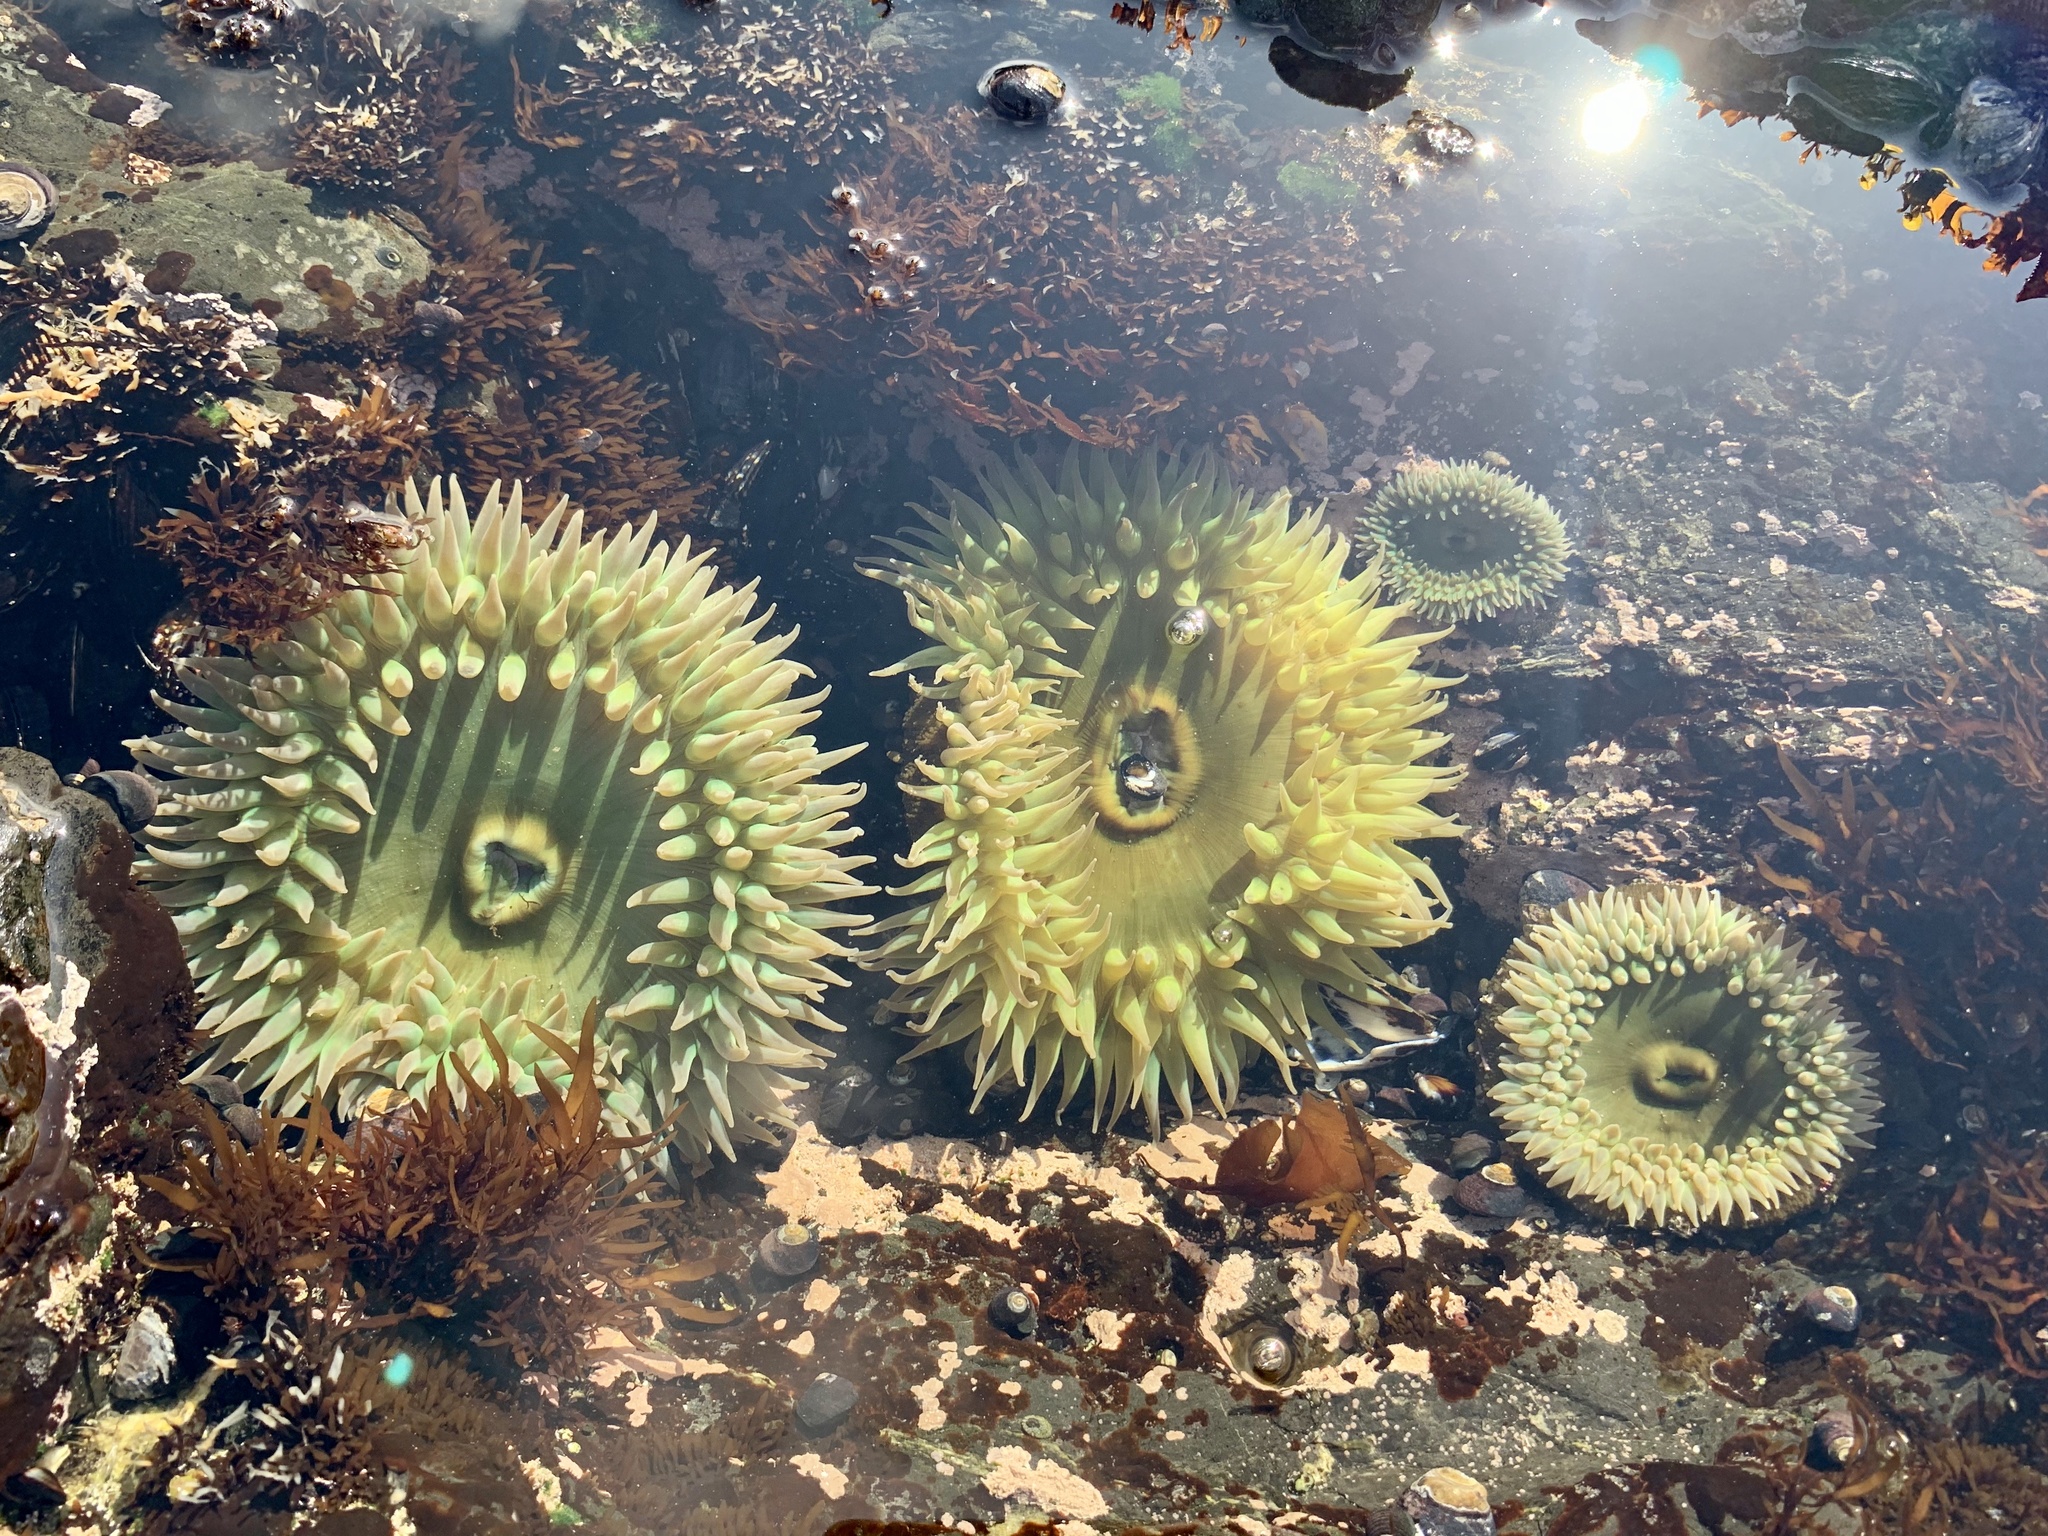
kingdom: Animalia
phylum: Cnidaria
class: Anthozoa
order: Actiniaria
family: Actiniidae
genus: Anthopleura
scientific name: Anthopleura xanthogrammica
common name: Giant green anemone
